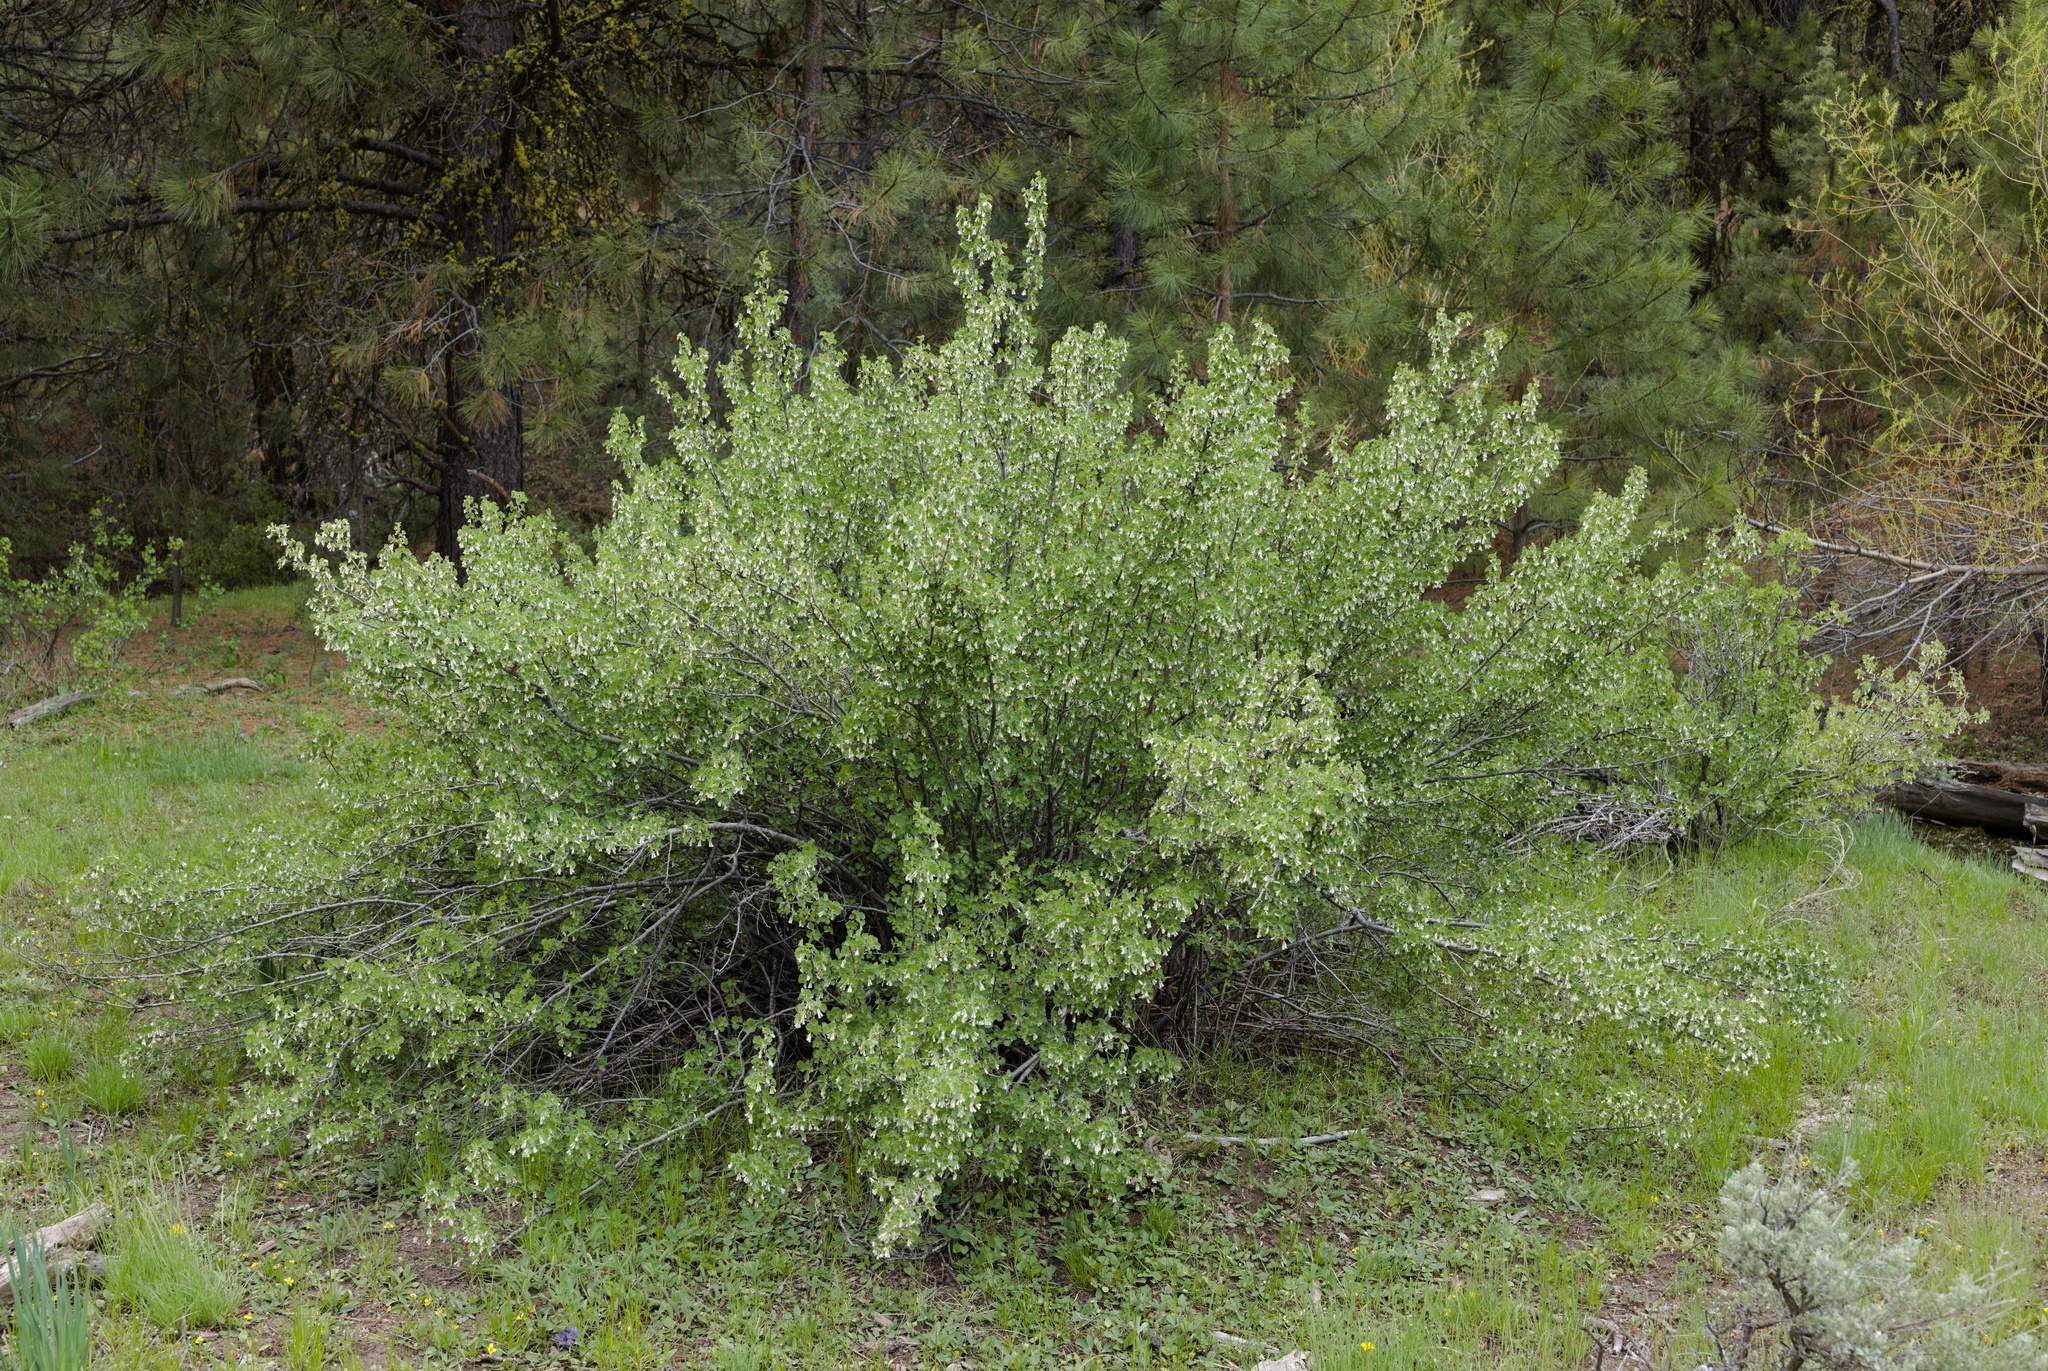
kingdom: Plantae
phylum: Tracheophyta
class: Magnoliopsida
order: Saxifragales
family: Grossulariaceae
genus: Ribes
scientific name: Ribes cereum
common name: Wax currant
